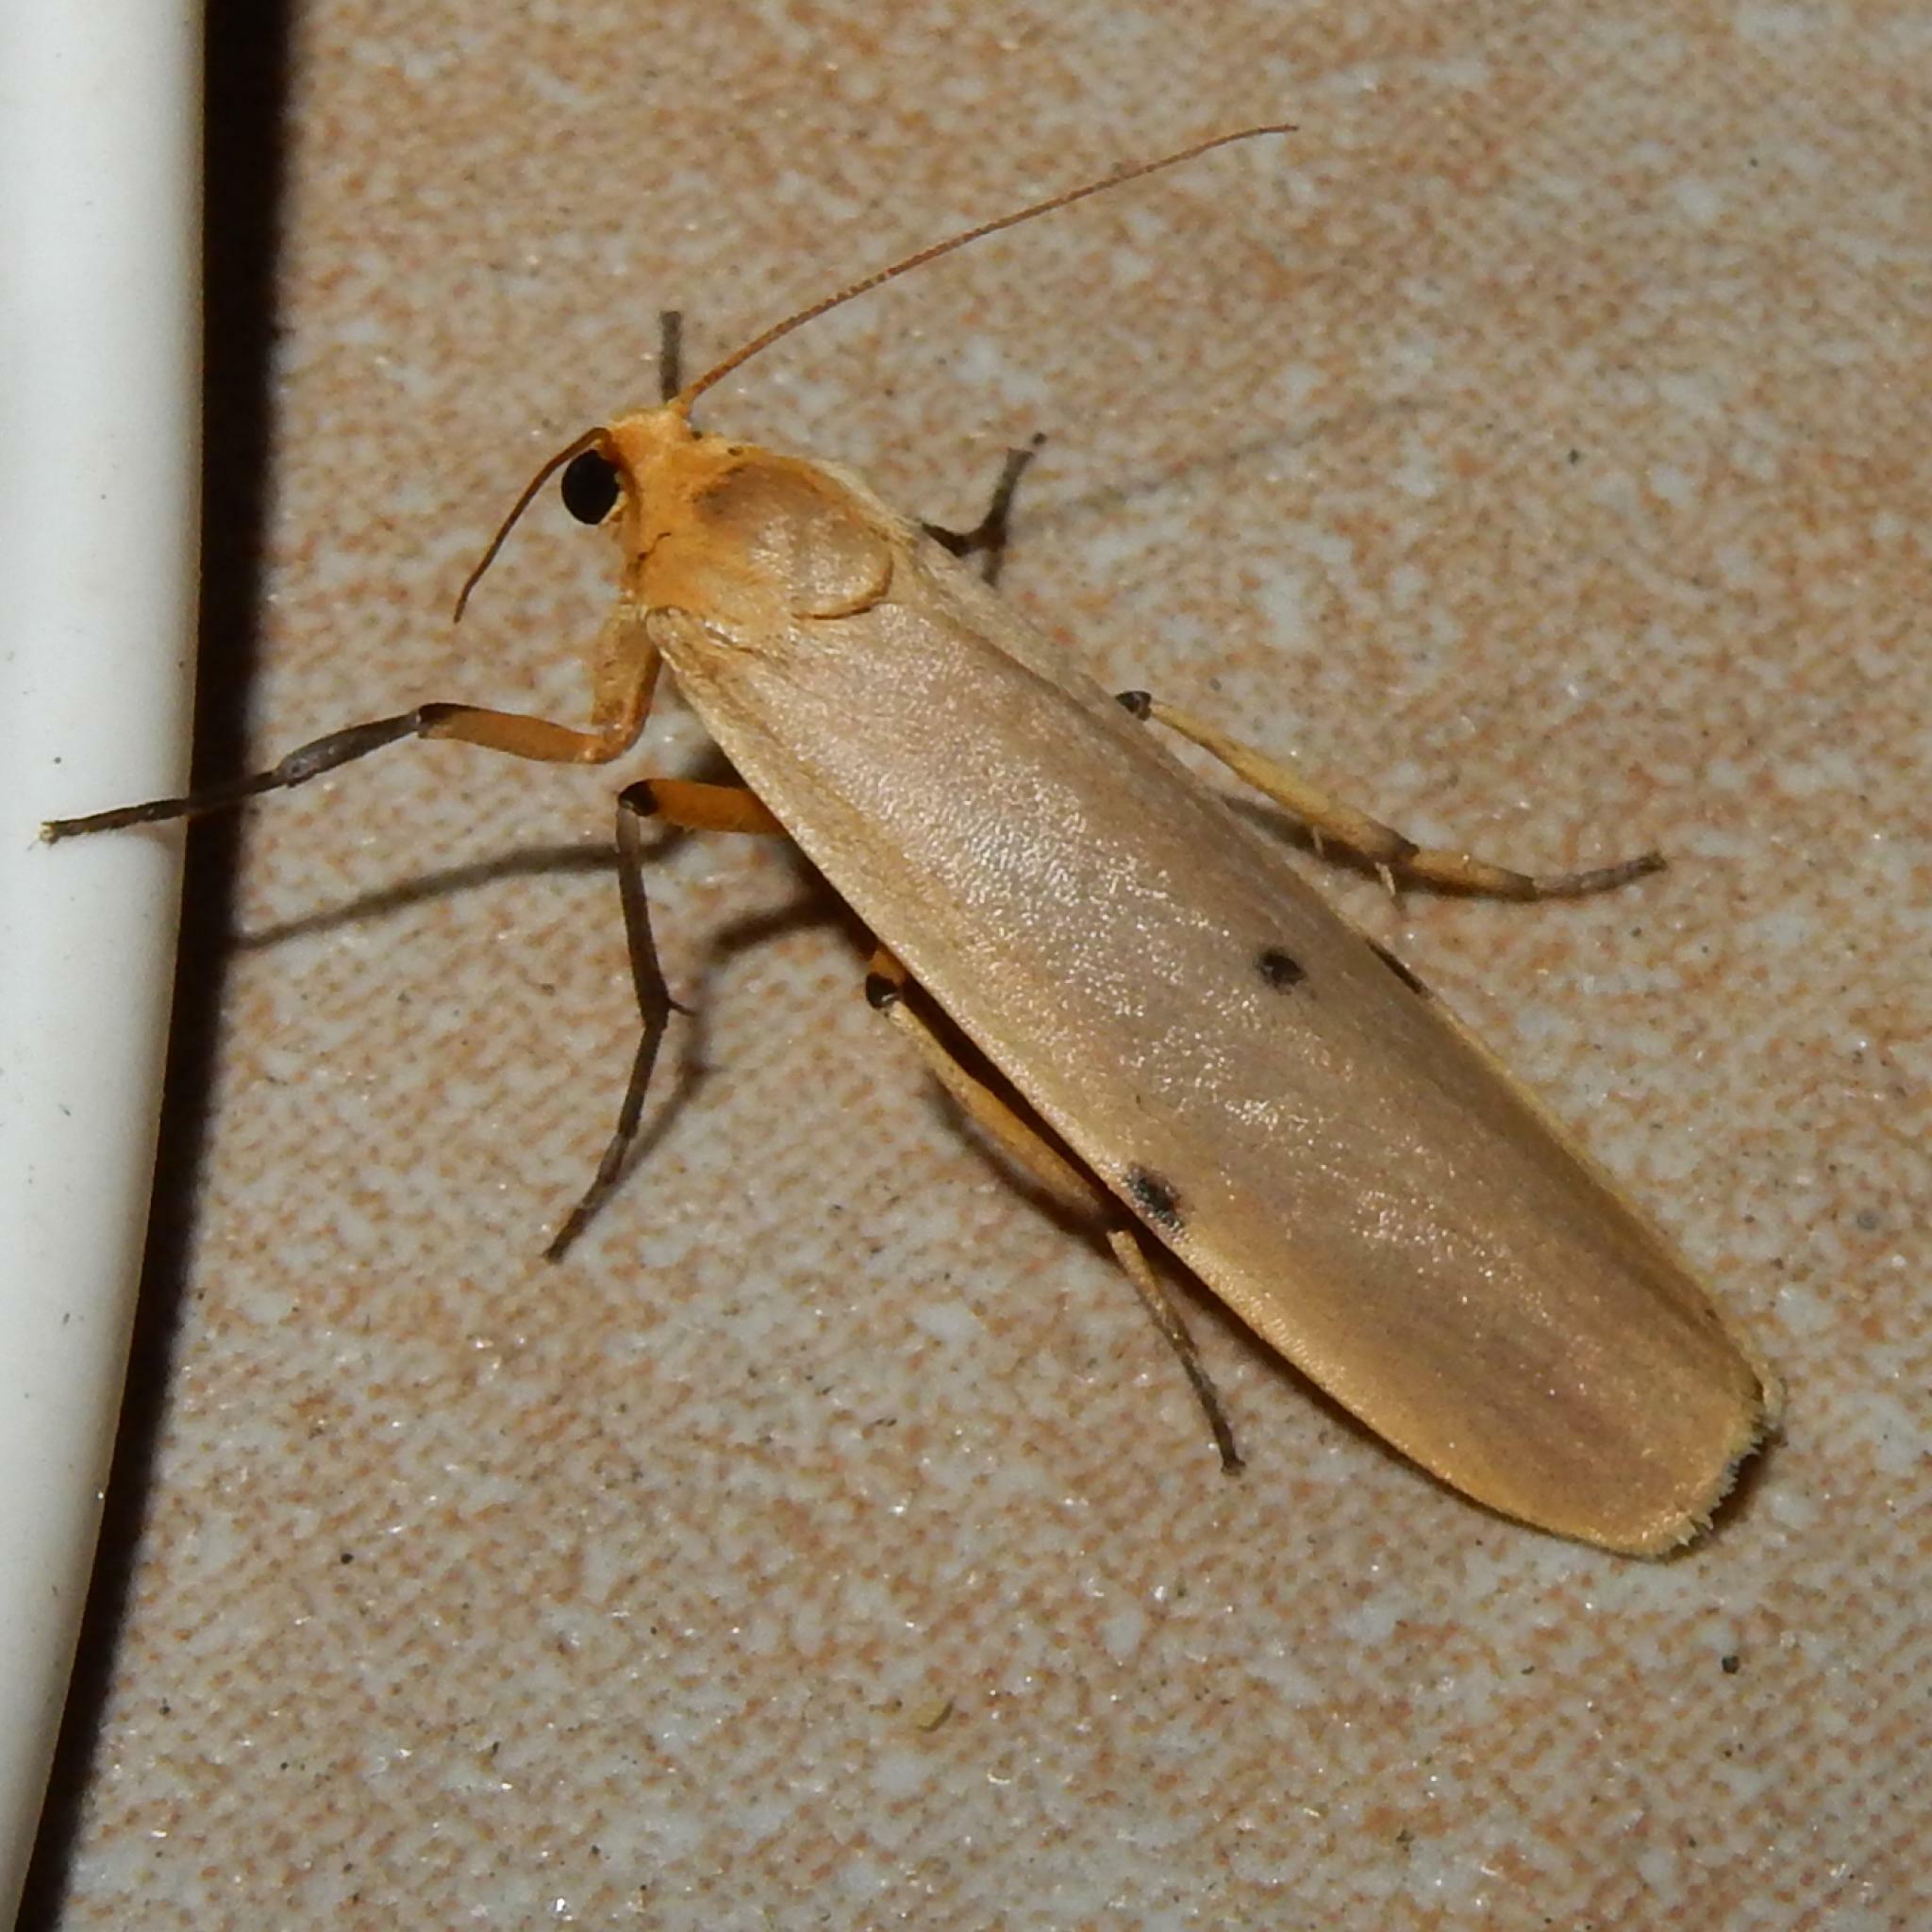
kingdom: Animalia
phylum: Arthropoda
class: Insecta
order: Lepidoptera
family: Erebidae
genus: Zobida
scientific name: Zobida similipuncta
